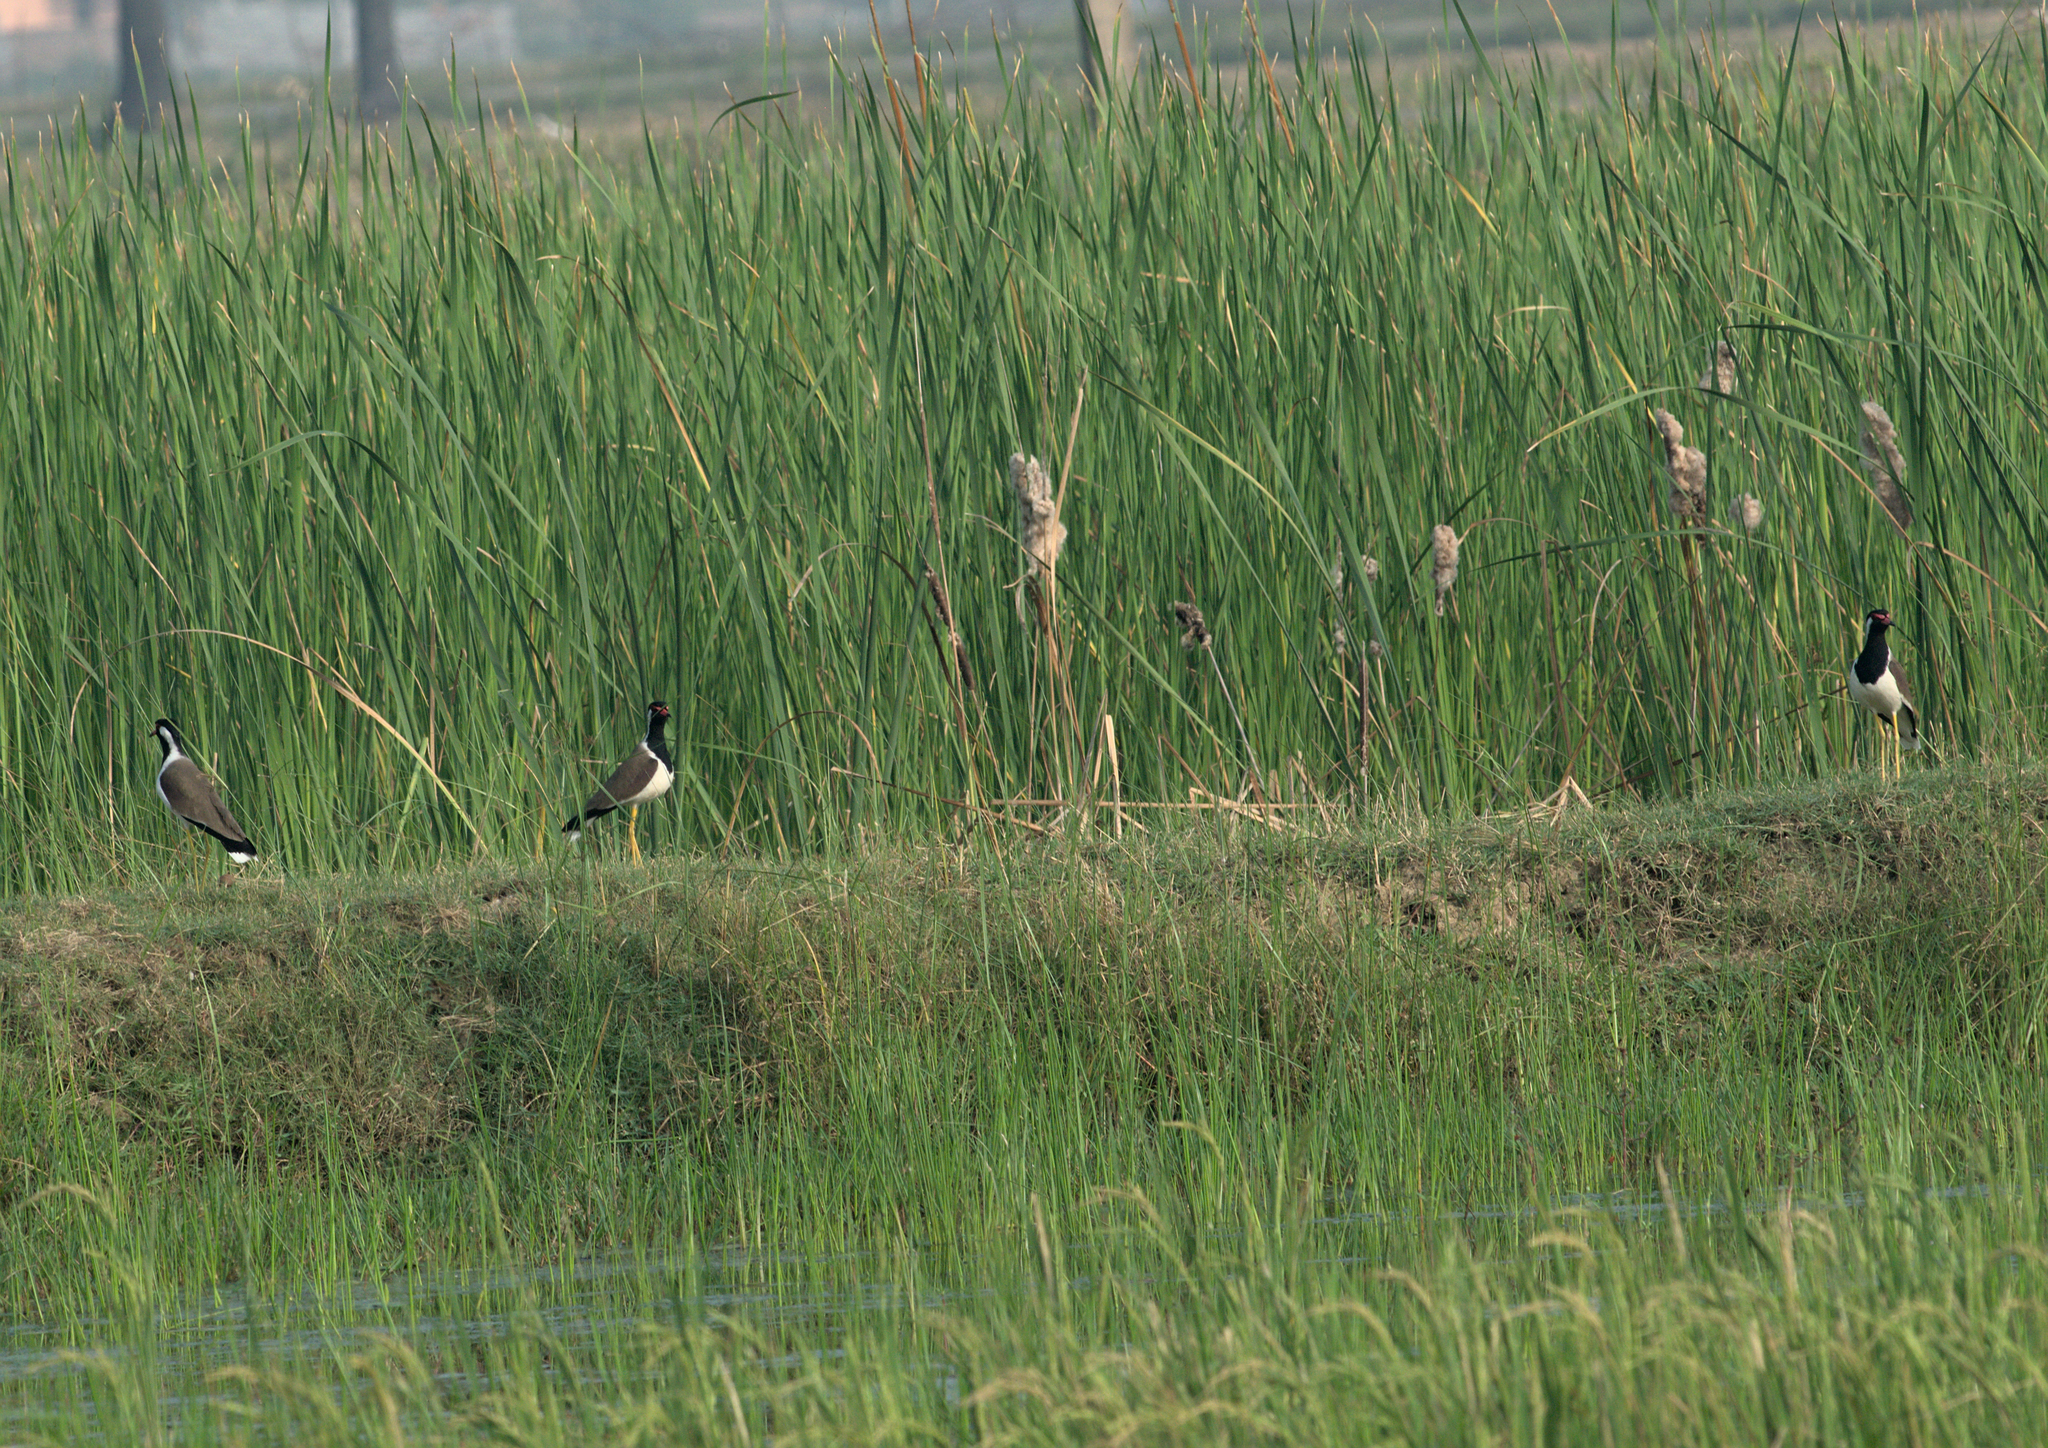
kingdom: Animalia
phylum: Chordata
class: Aves
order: Charadriiformes
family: Charadriidae
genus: Vanellus
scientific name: Vanellus indicus
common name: Red-wattled lapwing
